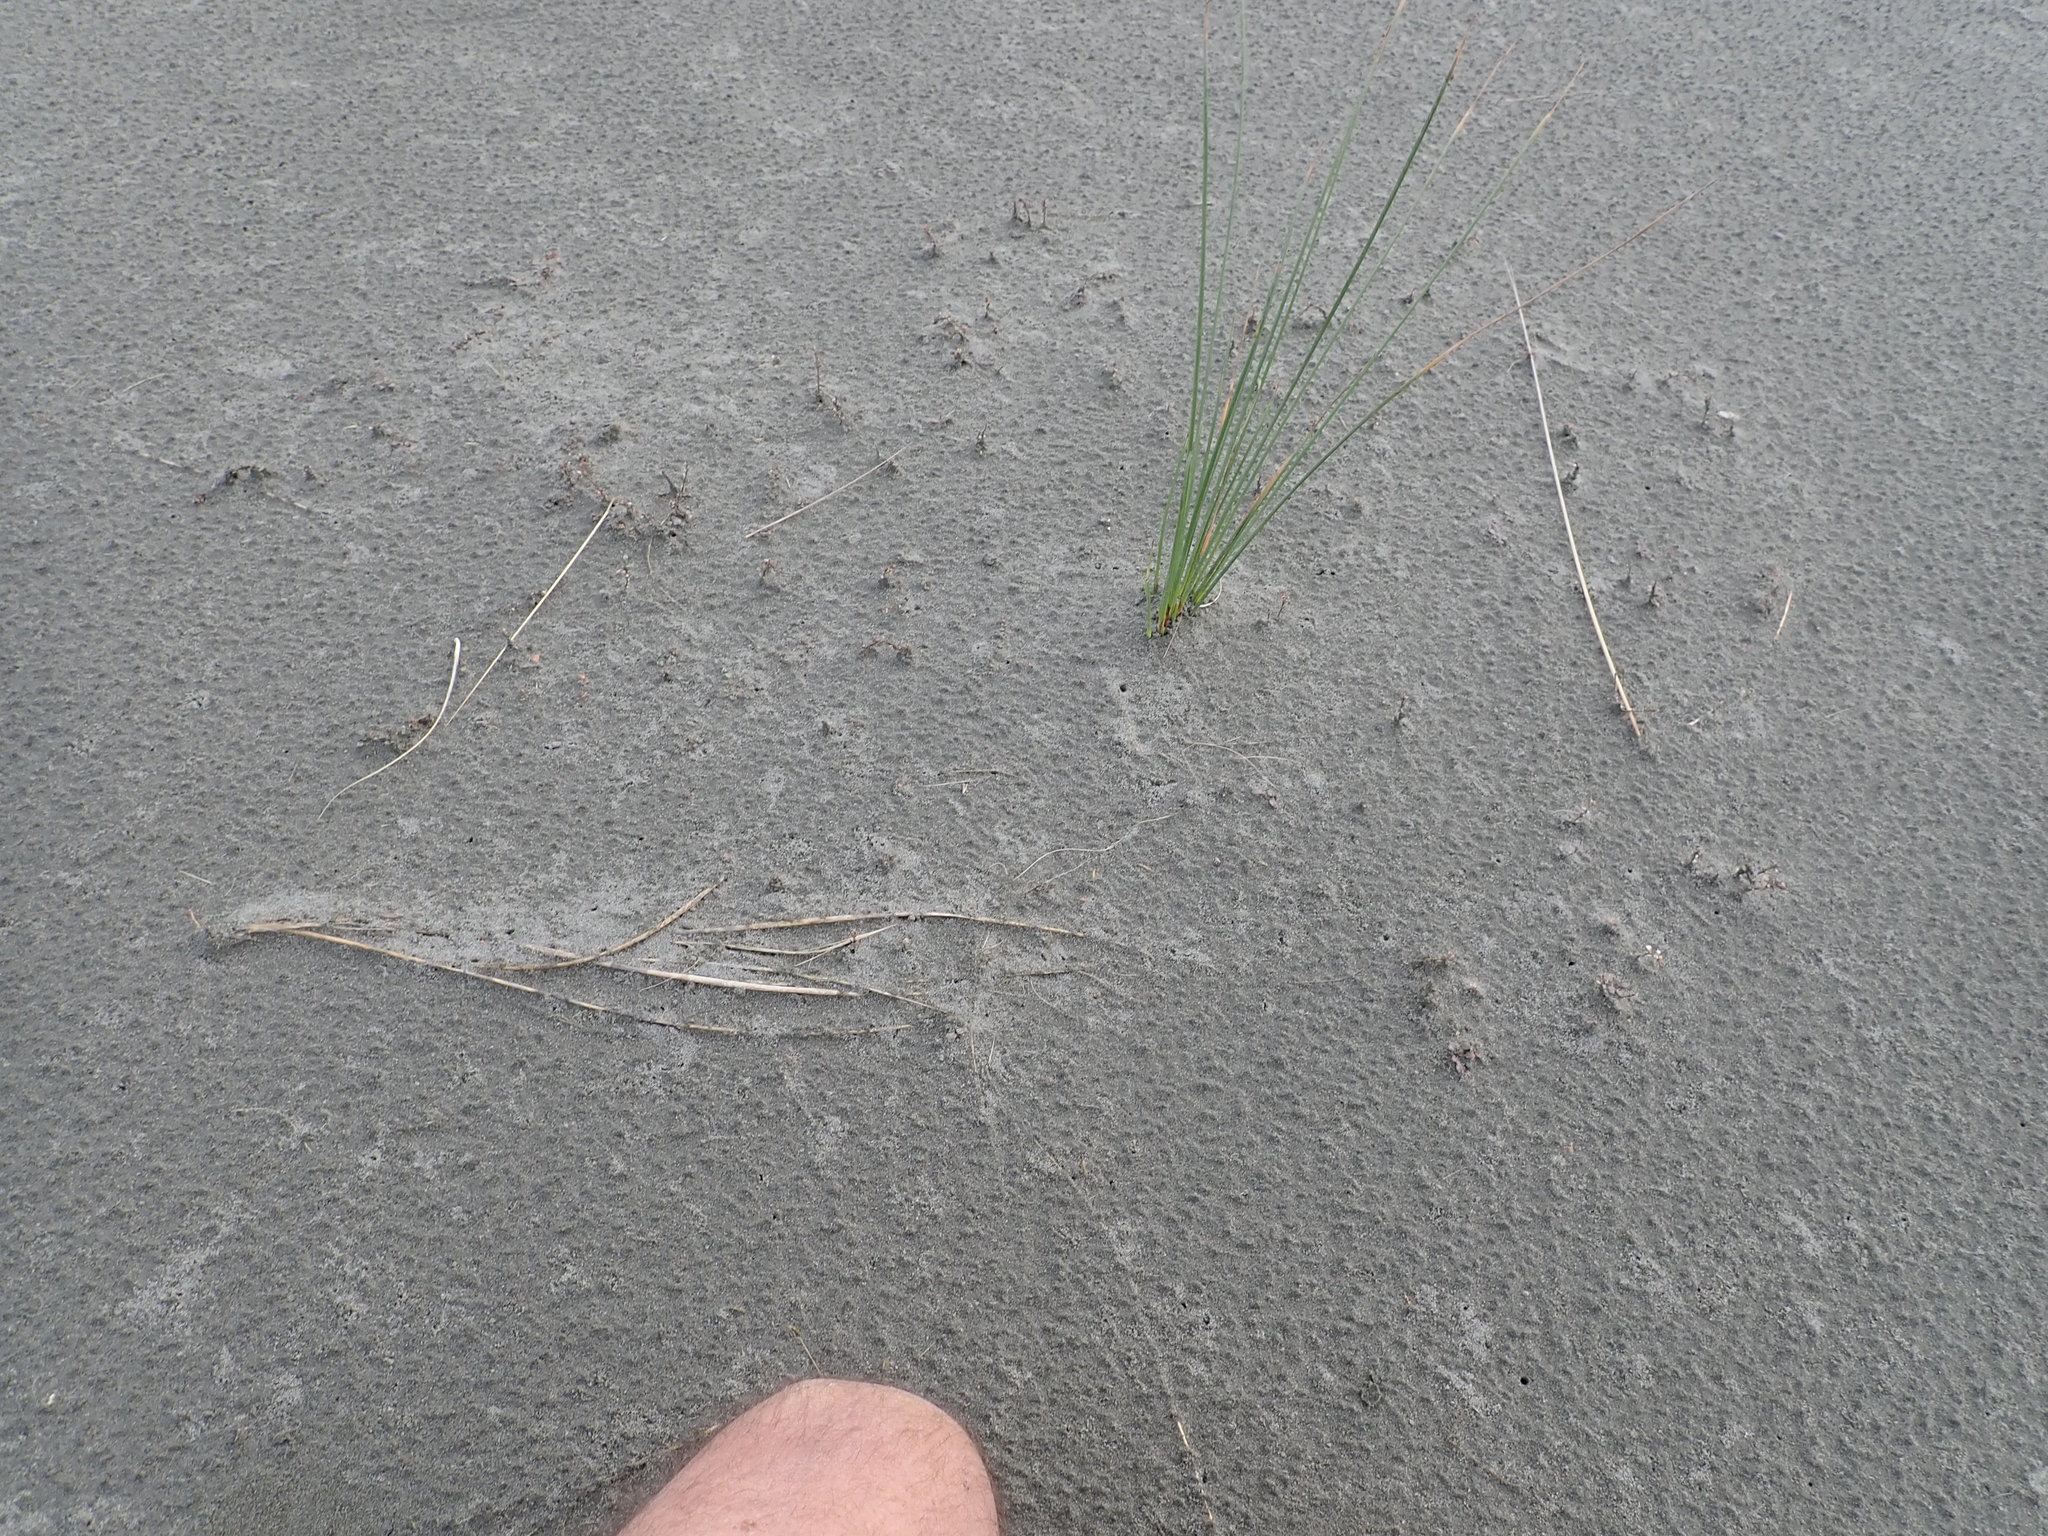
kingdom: Plantae
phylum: Tracheophyta
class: Magnoliopsida
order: Ericales
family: Primulaceae
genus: Samolus
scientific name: Samolus repens
